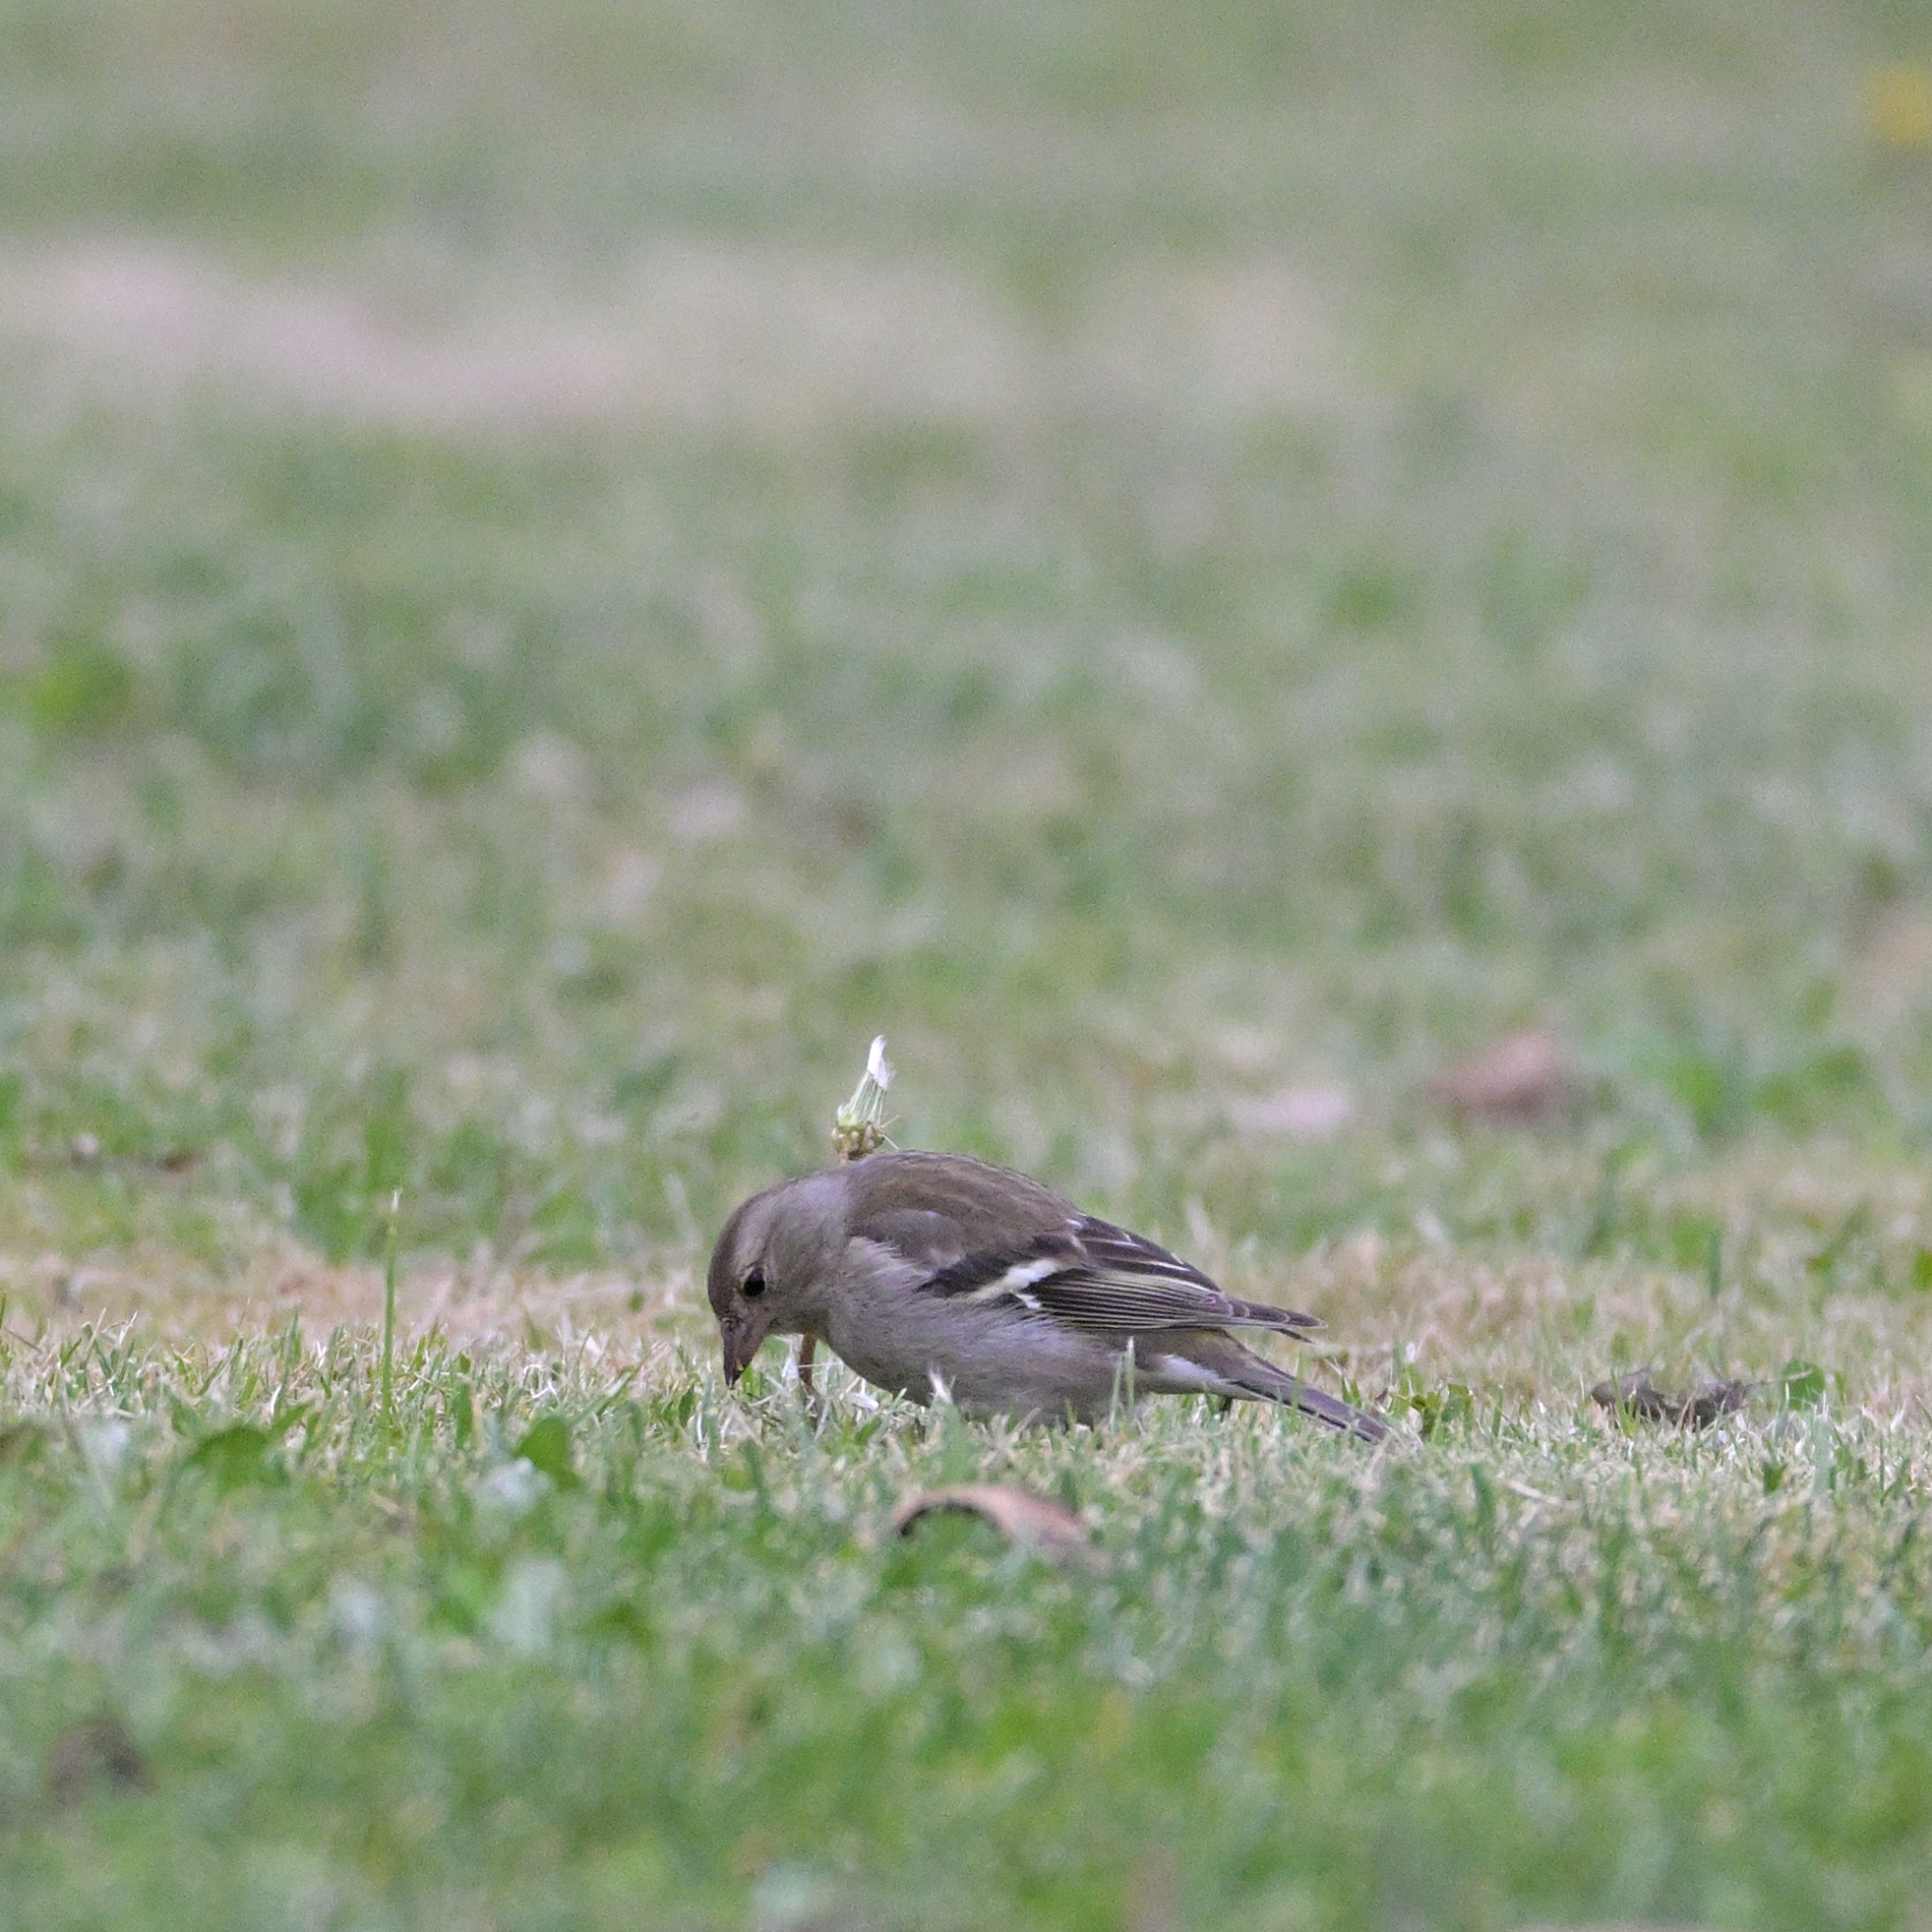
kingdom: Animalia
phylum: Chordata
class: Aves
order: Passeriformes
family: Fringillidae
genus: Fringilla
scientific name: Fringilla coelebs
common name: Common chaffinch
